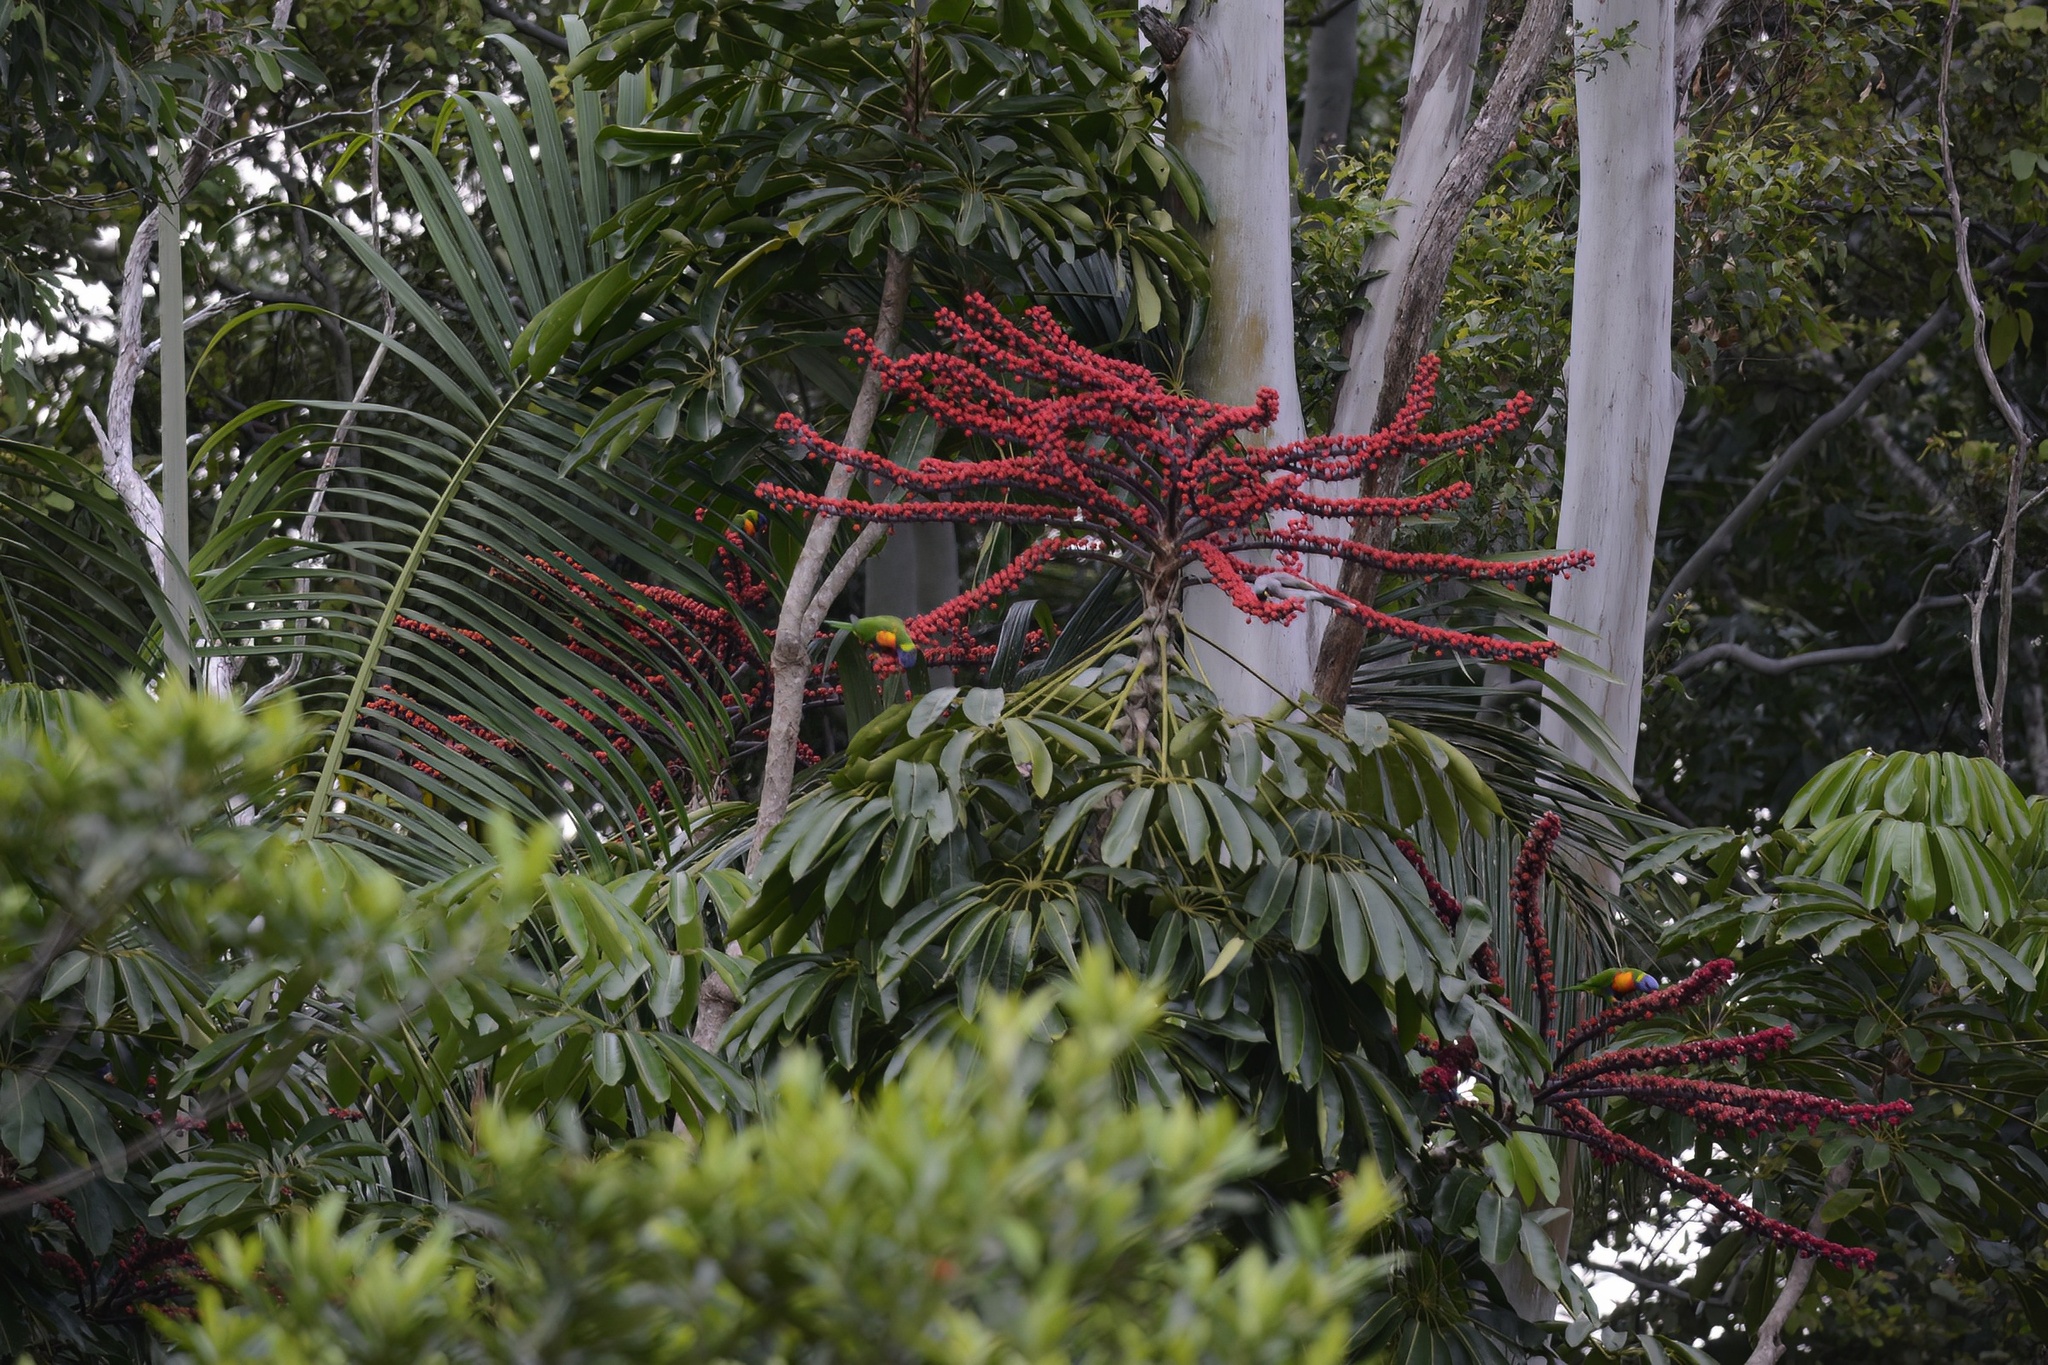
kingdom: Animalia
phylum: Chordata
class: Aves
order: Psittaciformes
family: Psittacidae
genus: Trichoglossus
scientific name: Trichoglossus haematodus
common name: Coconut lorikeet
